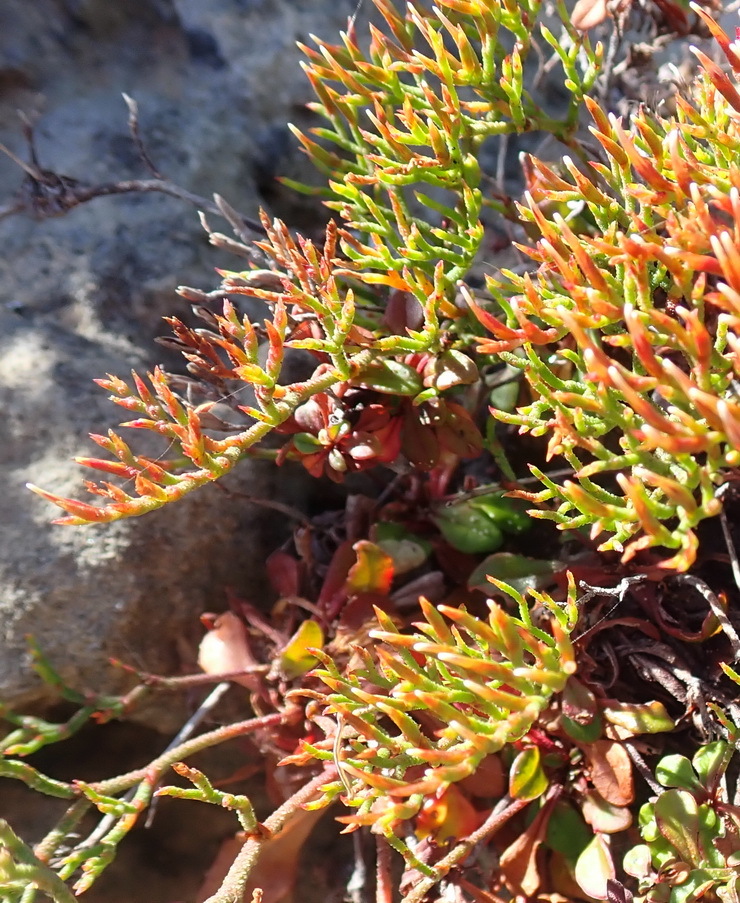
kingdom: Plantae
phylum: Tracheophyta
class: Magnoliopsida
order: Caryophyllales
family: Plumbaginaceae
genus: Limonium
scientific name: Limonium scabrum
